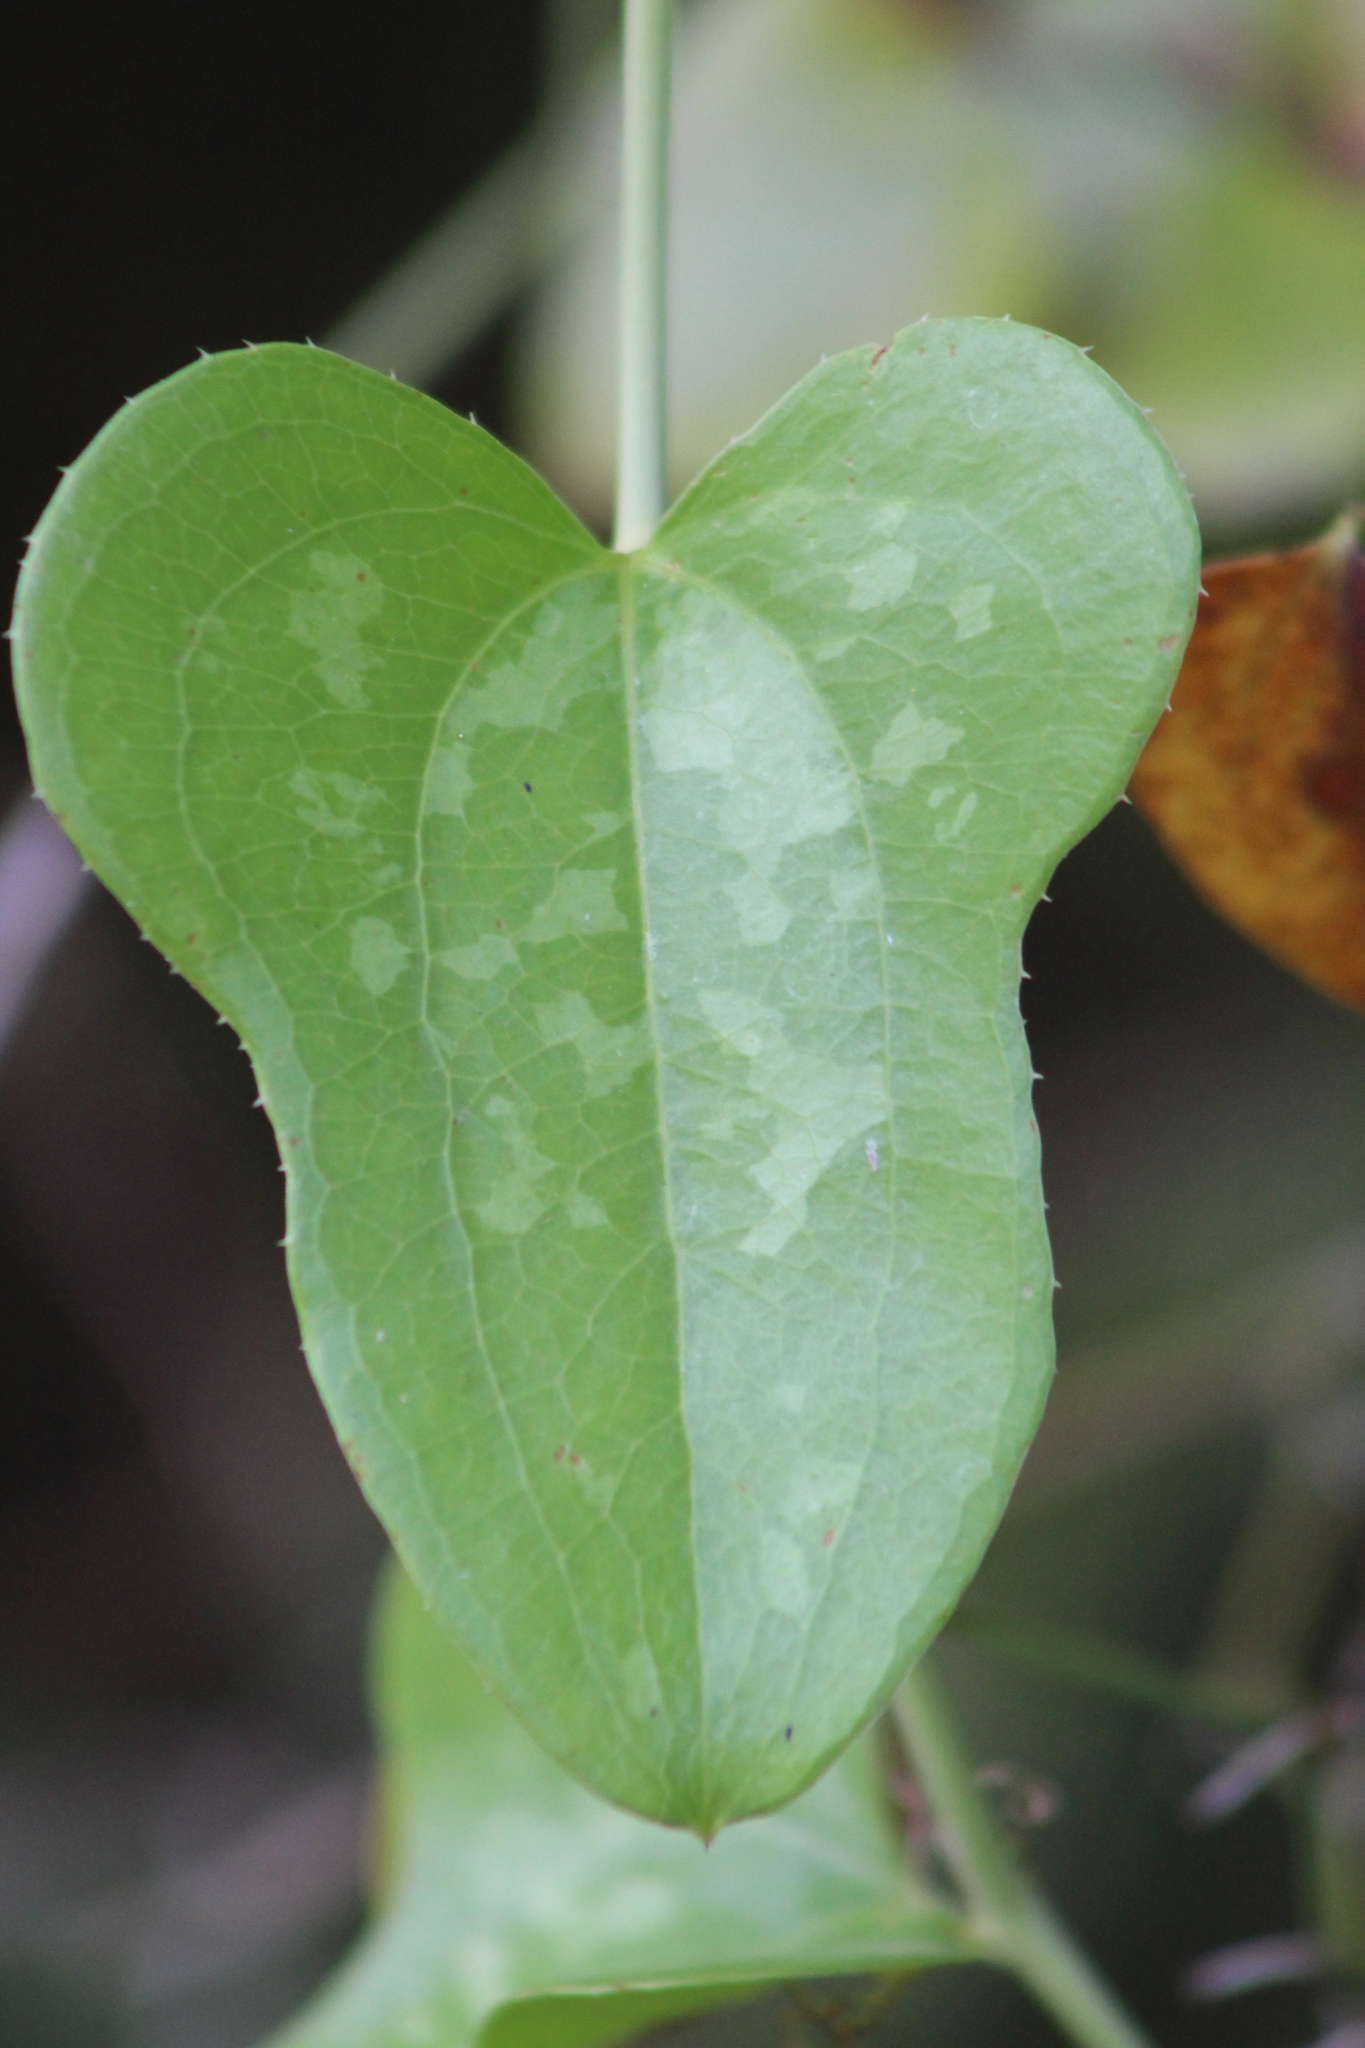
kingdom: Plantae
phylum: Tracheophyta
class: Liliopsida
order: Liliales
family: Smilacaceae
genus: Smilax
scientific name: Smilax bona-nox
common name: Catbrier
